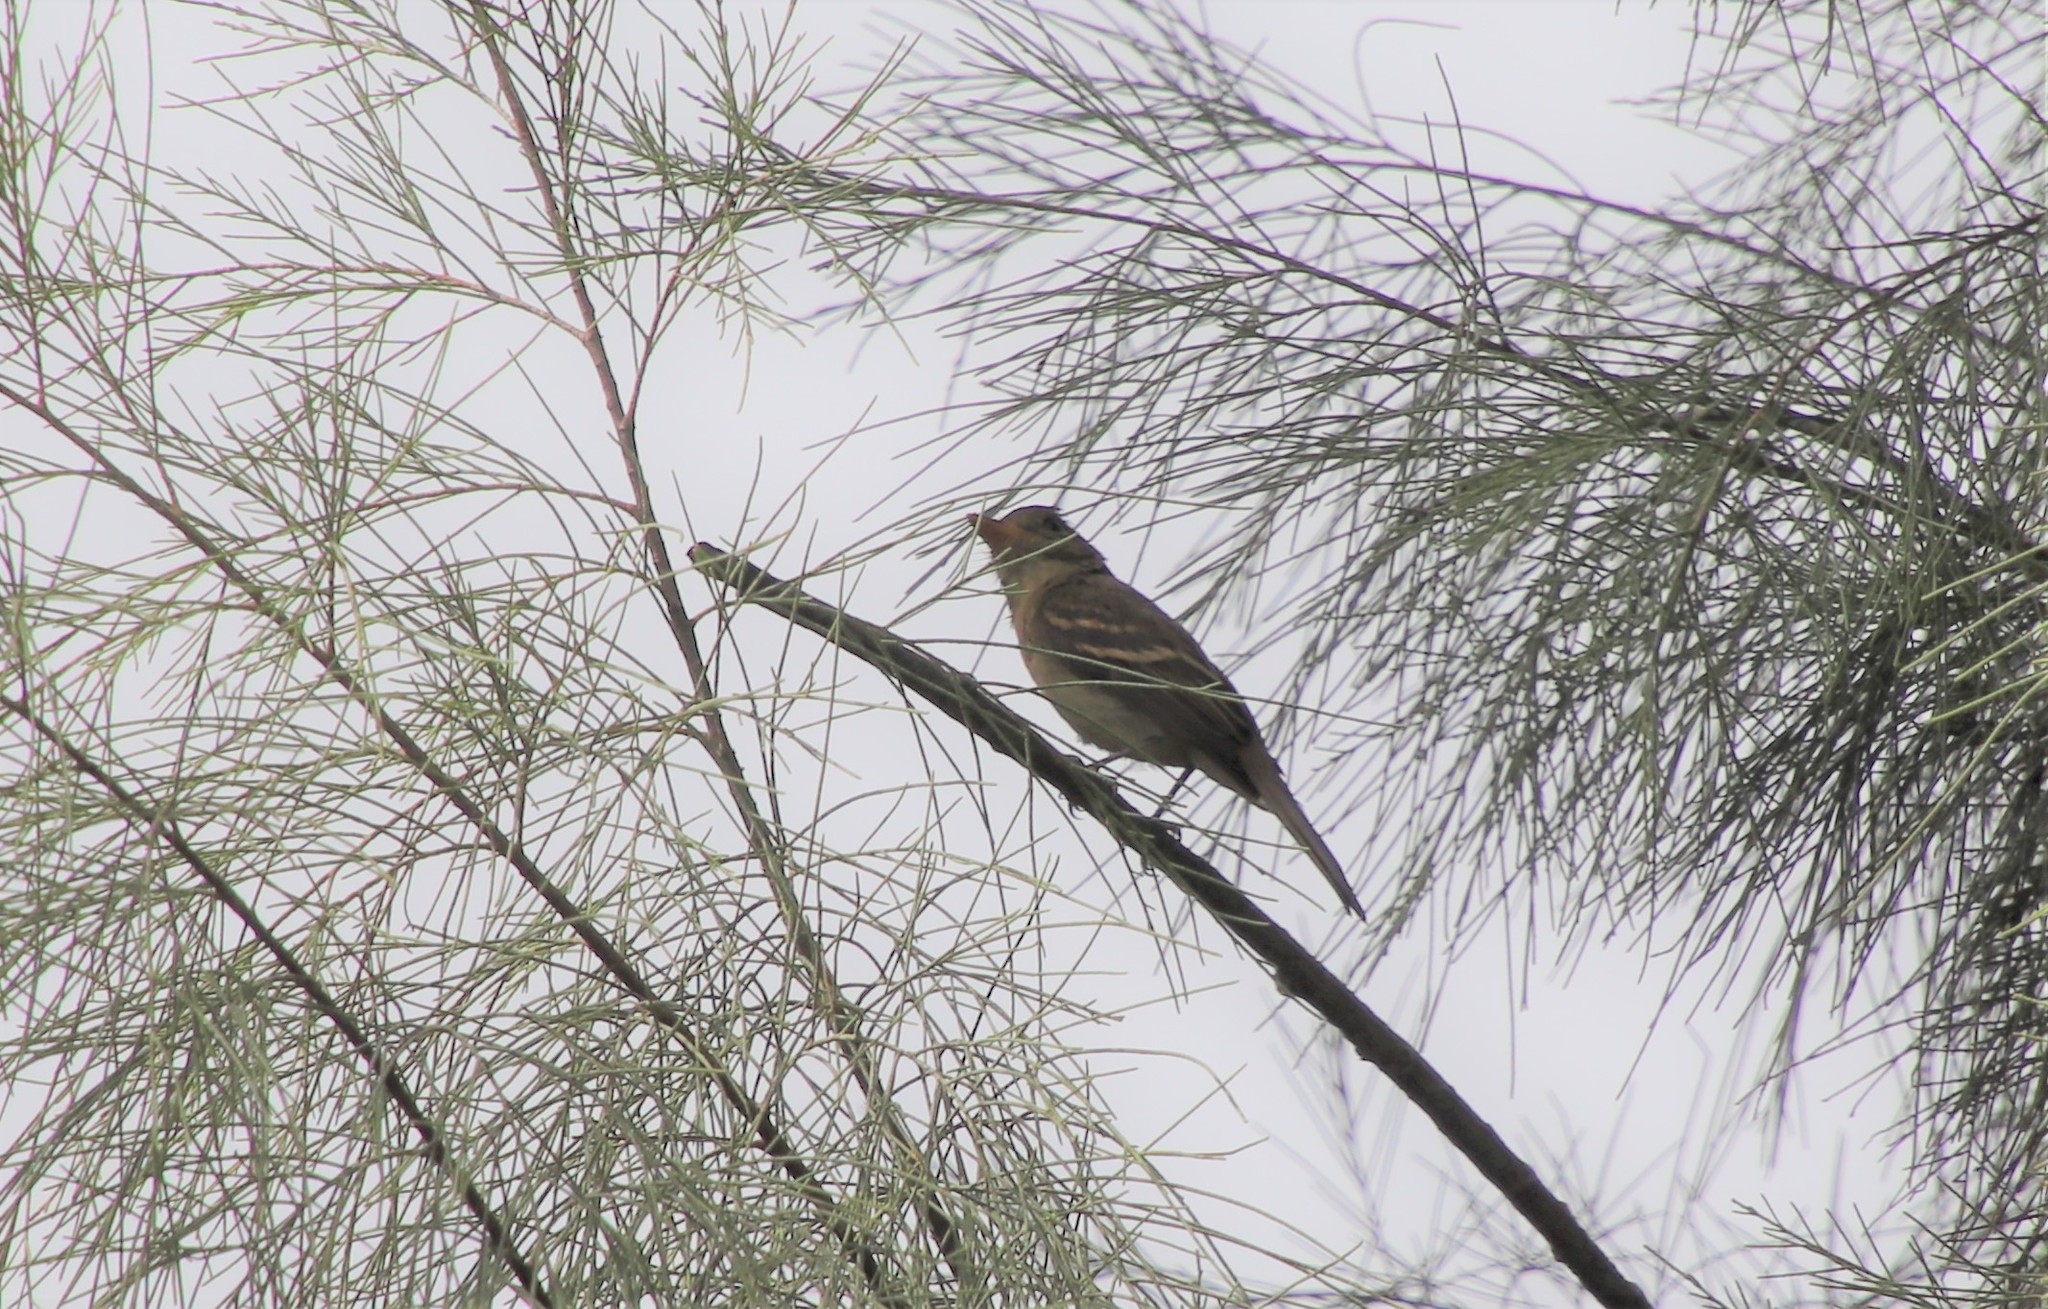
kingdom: Animalia
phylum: Chordata
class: Aves
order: Passeriformes
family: Tyrannidae
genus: Empidonax
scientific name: Empidonax difficilis
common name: Pacific-slope flycatcher
